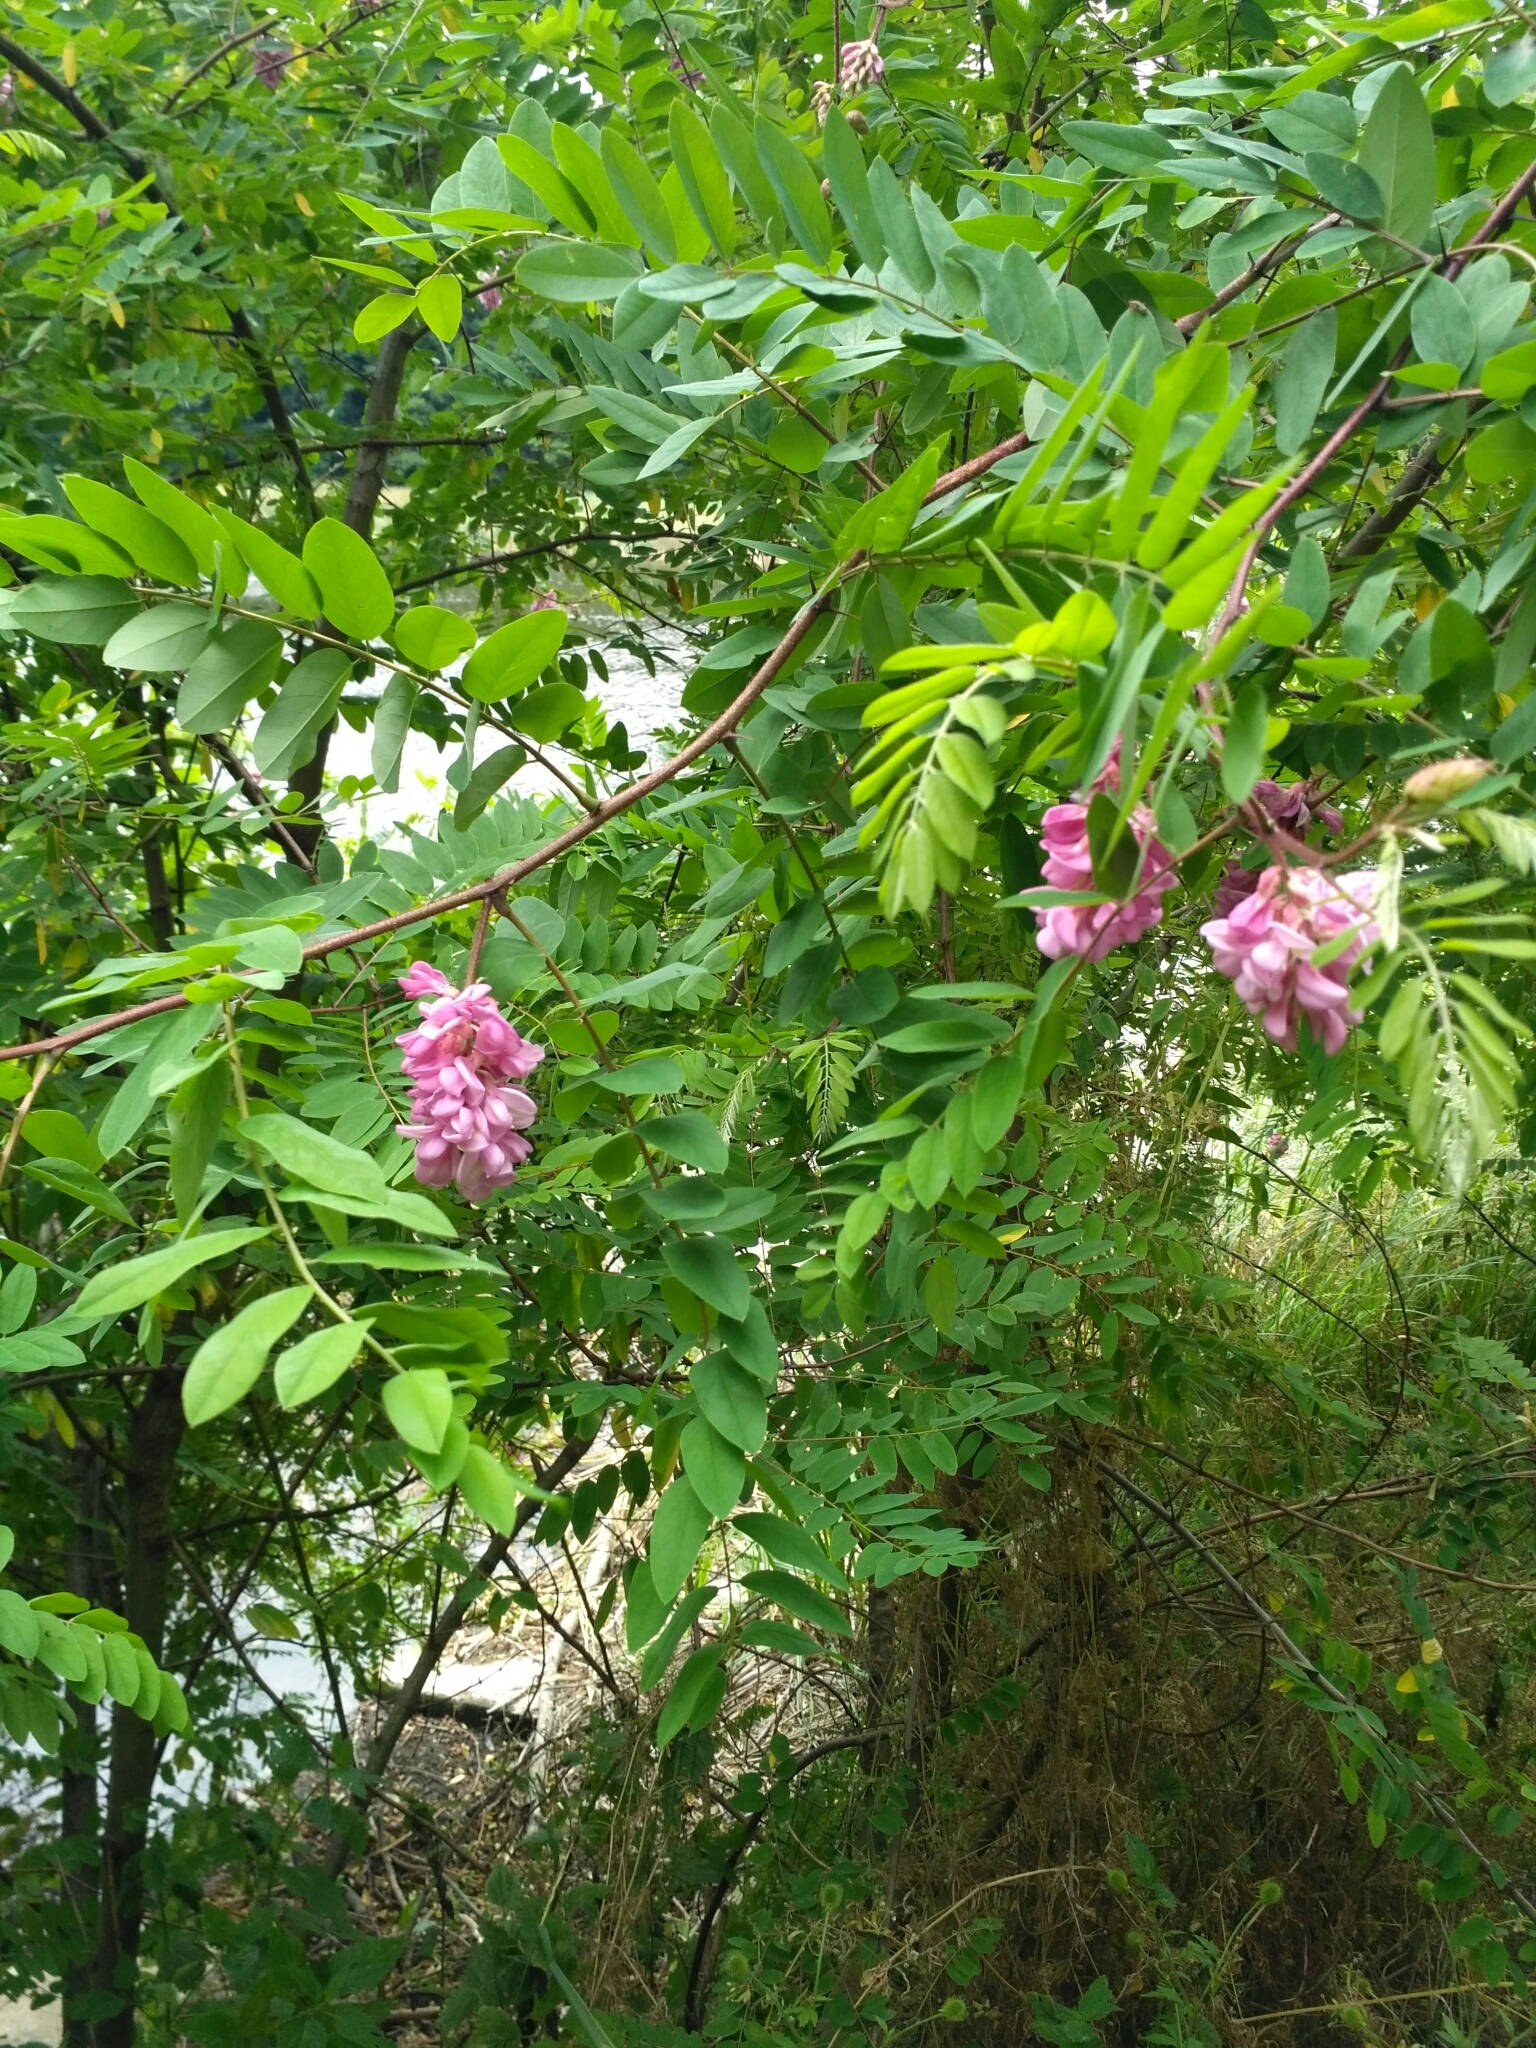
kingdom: Plantae
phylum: Tracheophyta
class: Magnoliopsida
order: Fabales
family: Fabaceae
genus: Robinia
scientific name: Robinia viscosa
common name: Clammy locust
